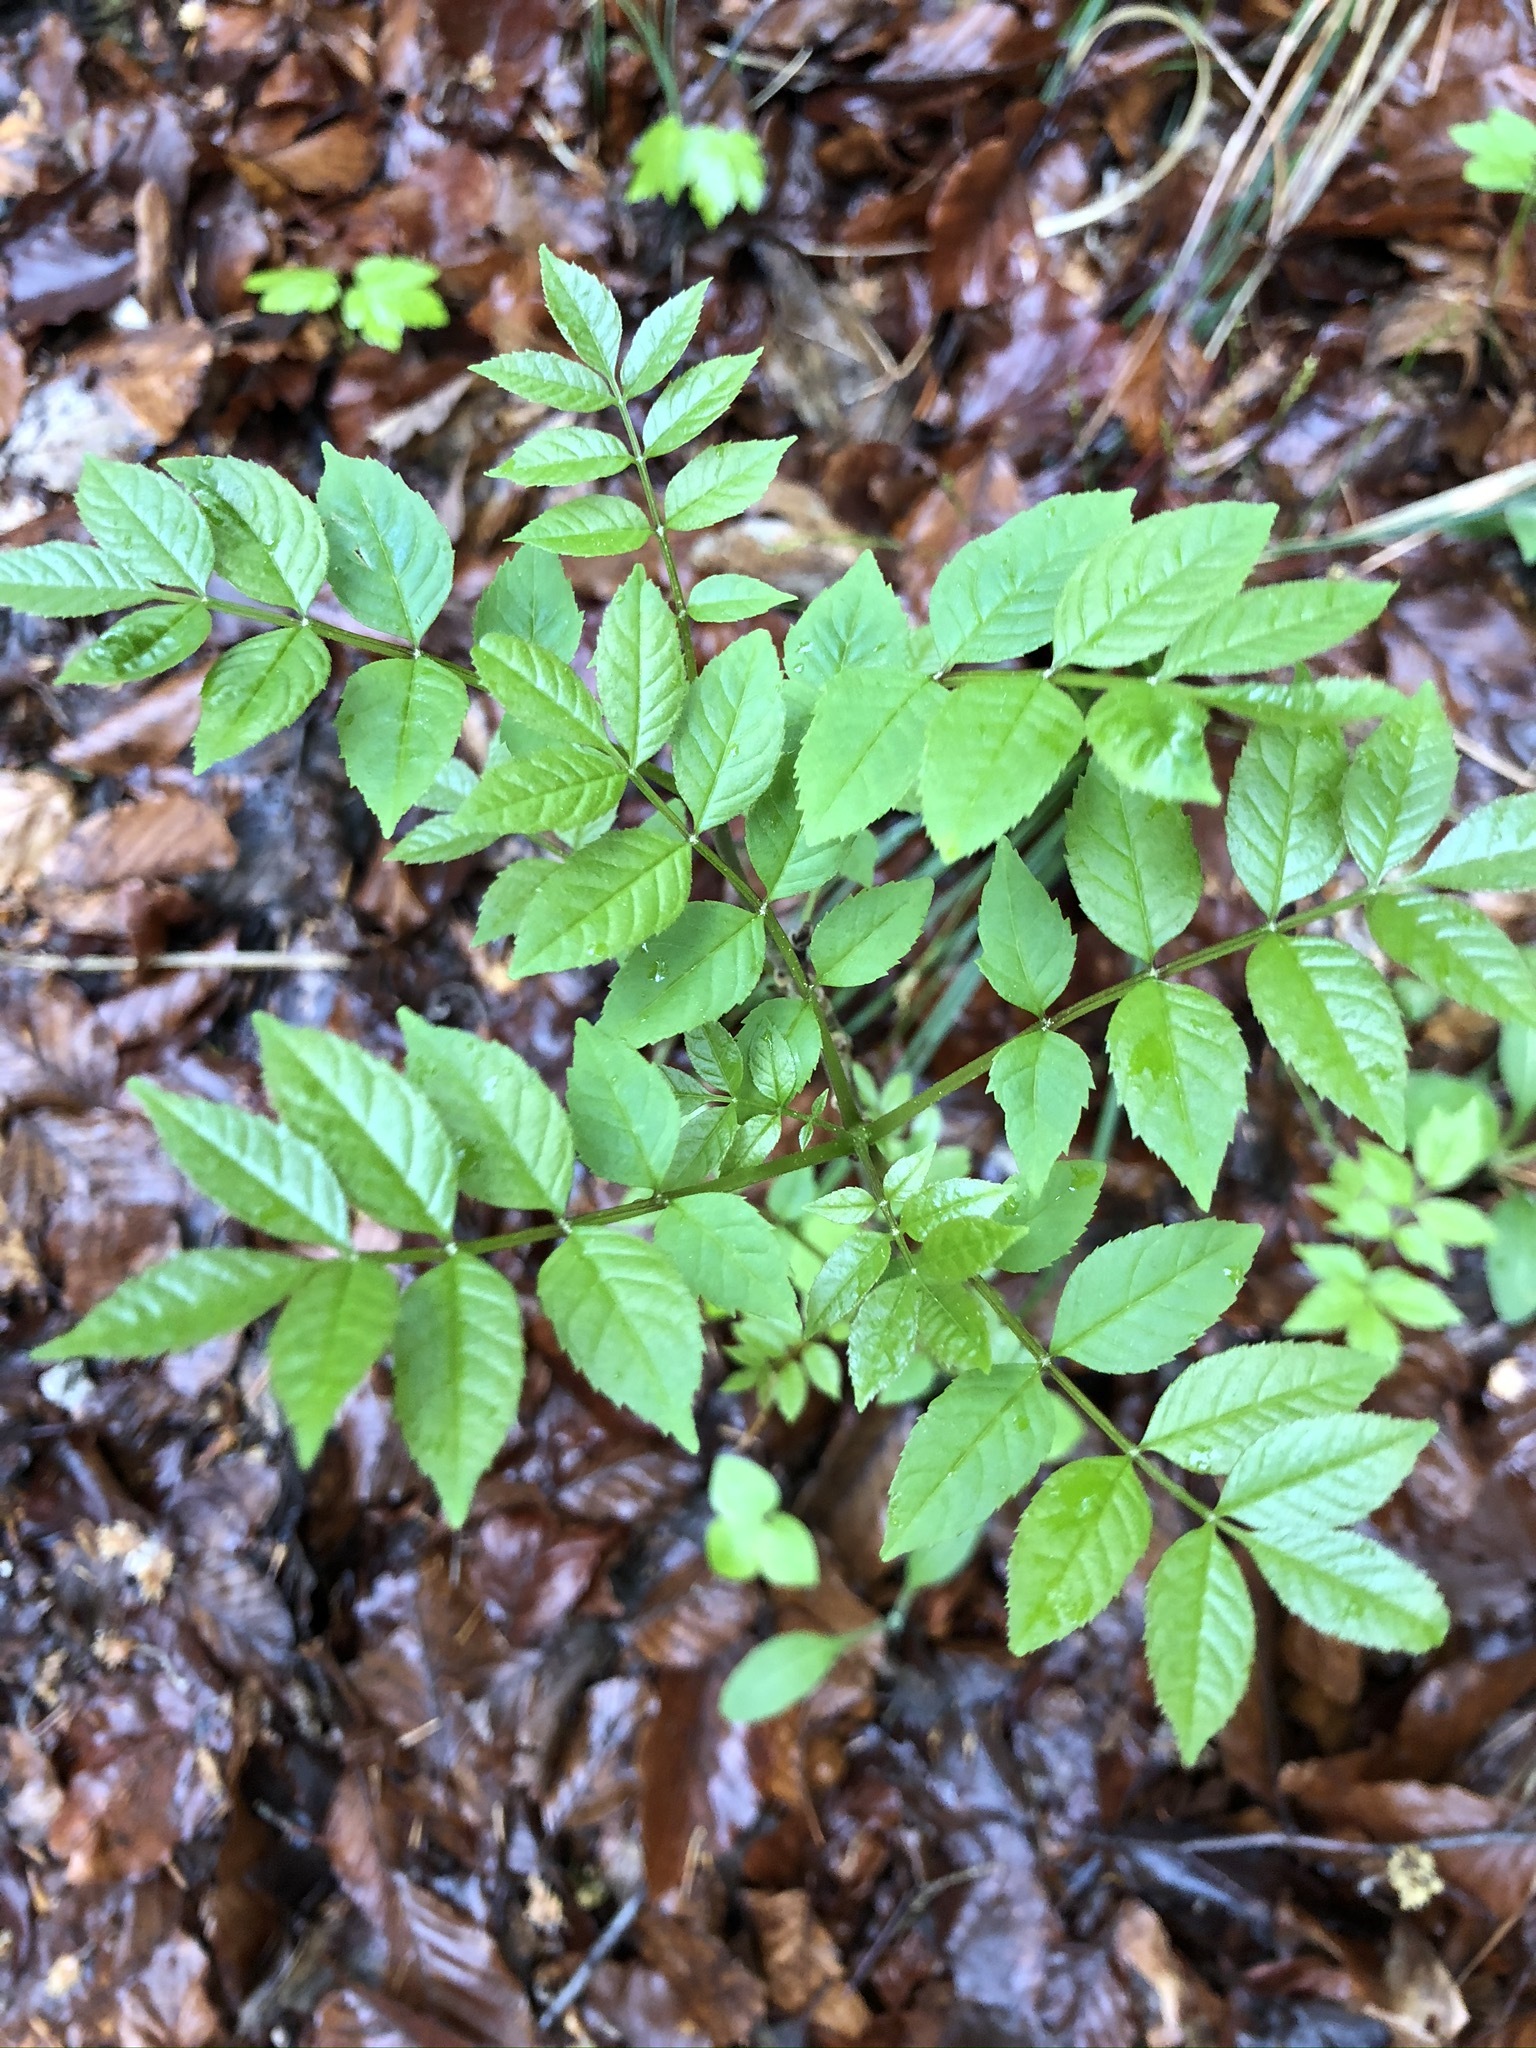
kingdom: Plantae
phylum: Tracheophyta
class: Magnoliopsida
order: Lamiales
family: Oleaceae
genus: Fraxinus
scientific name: Fraxinus excelsior
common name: European ash
